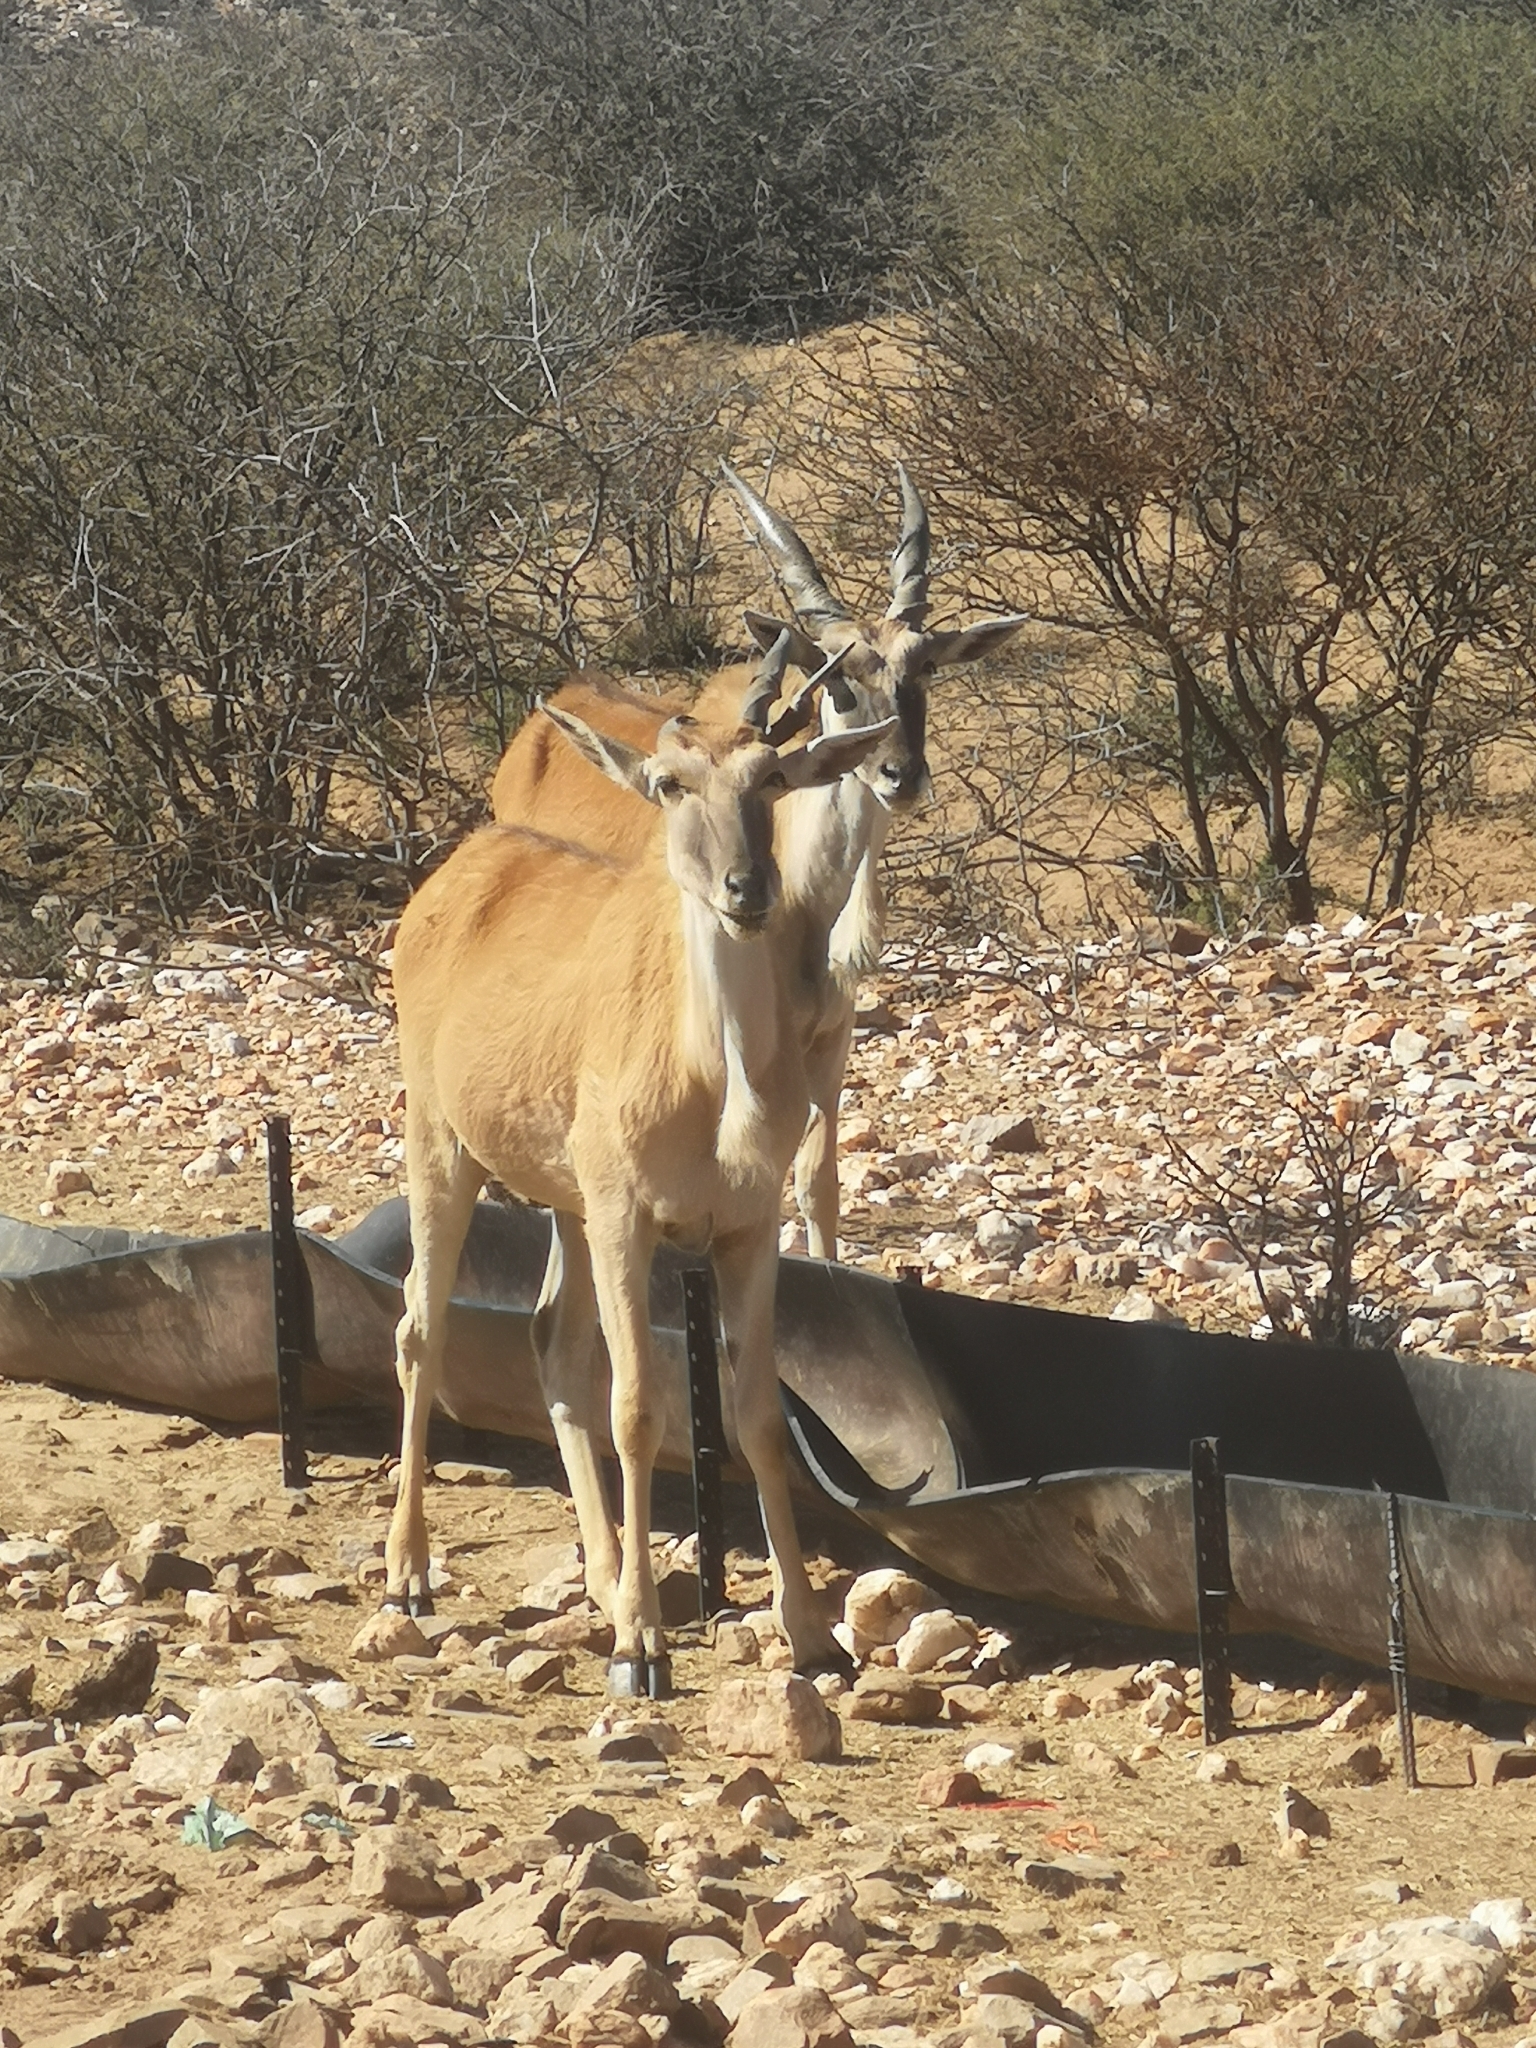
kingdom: Animalia
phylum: Chordata
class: Mammalia
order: Artiodactyla
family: Bovidae
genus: Taurotragus
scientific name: Taurotragus oryx
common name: Common eland
